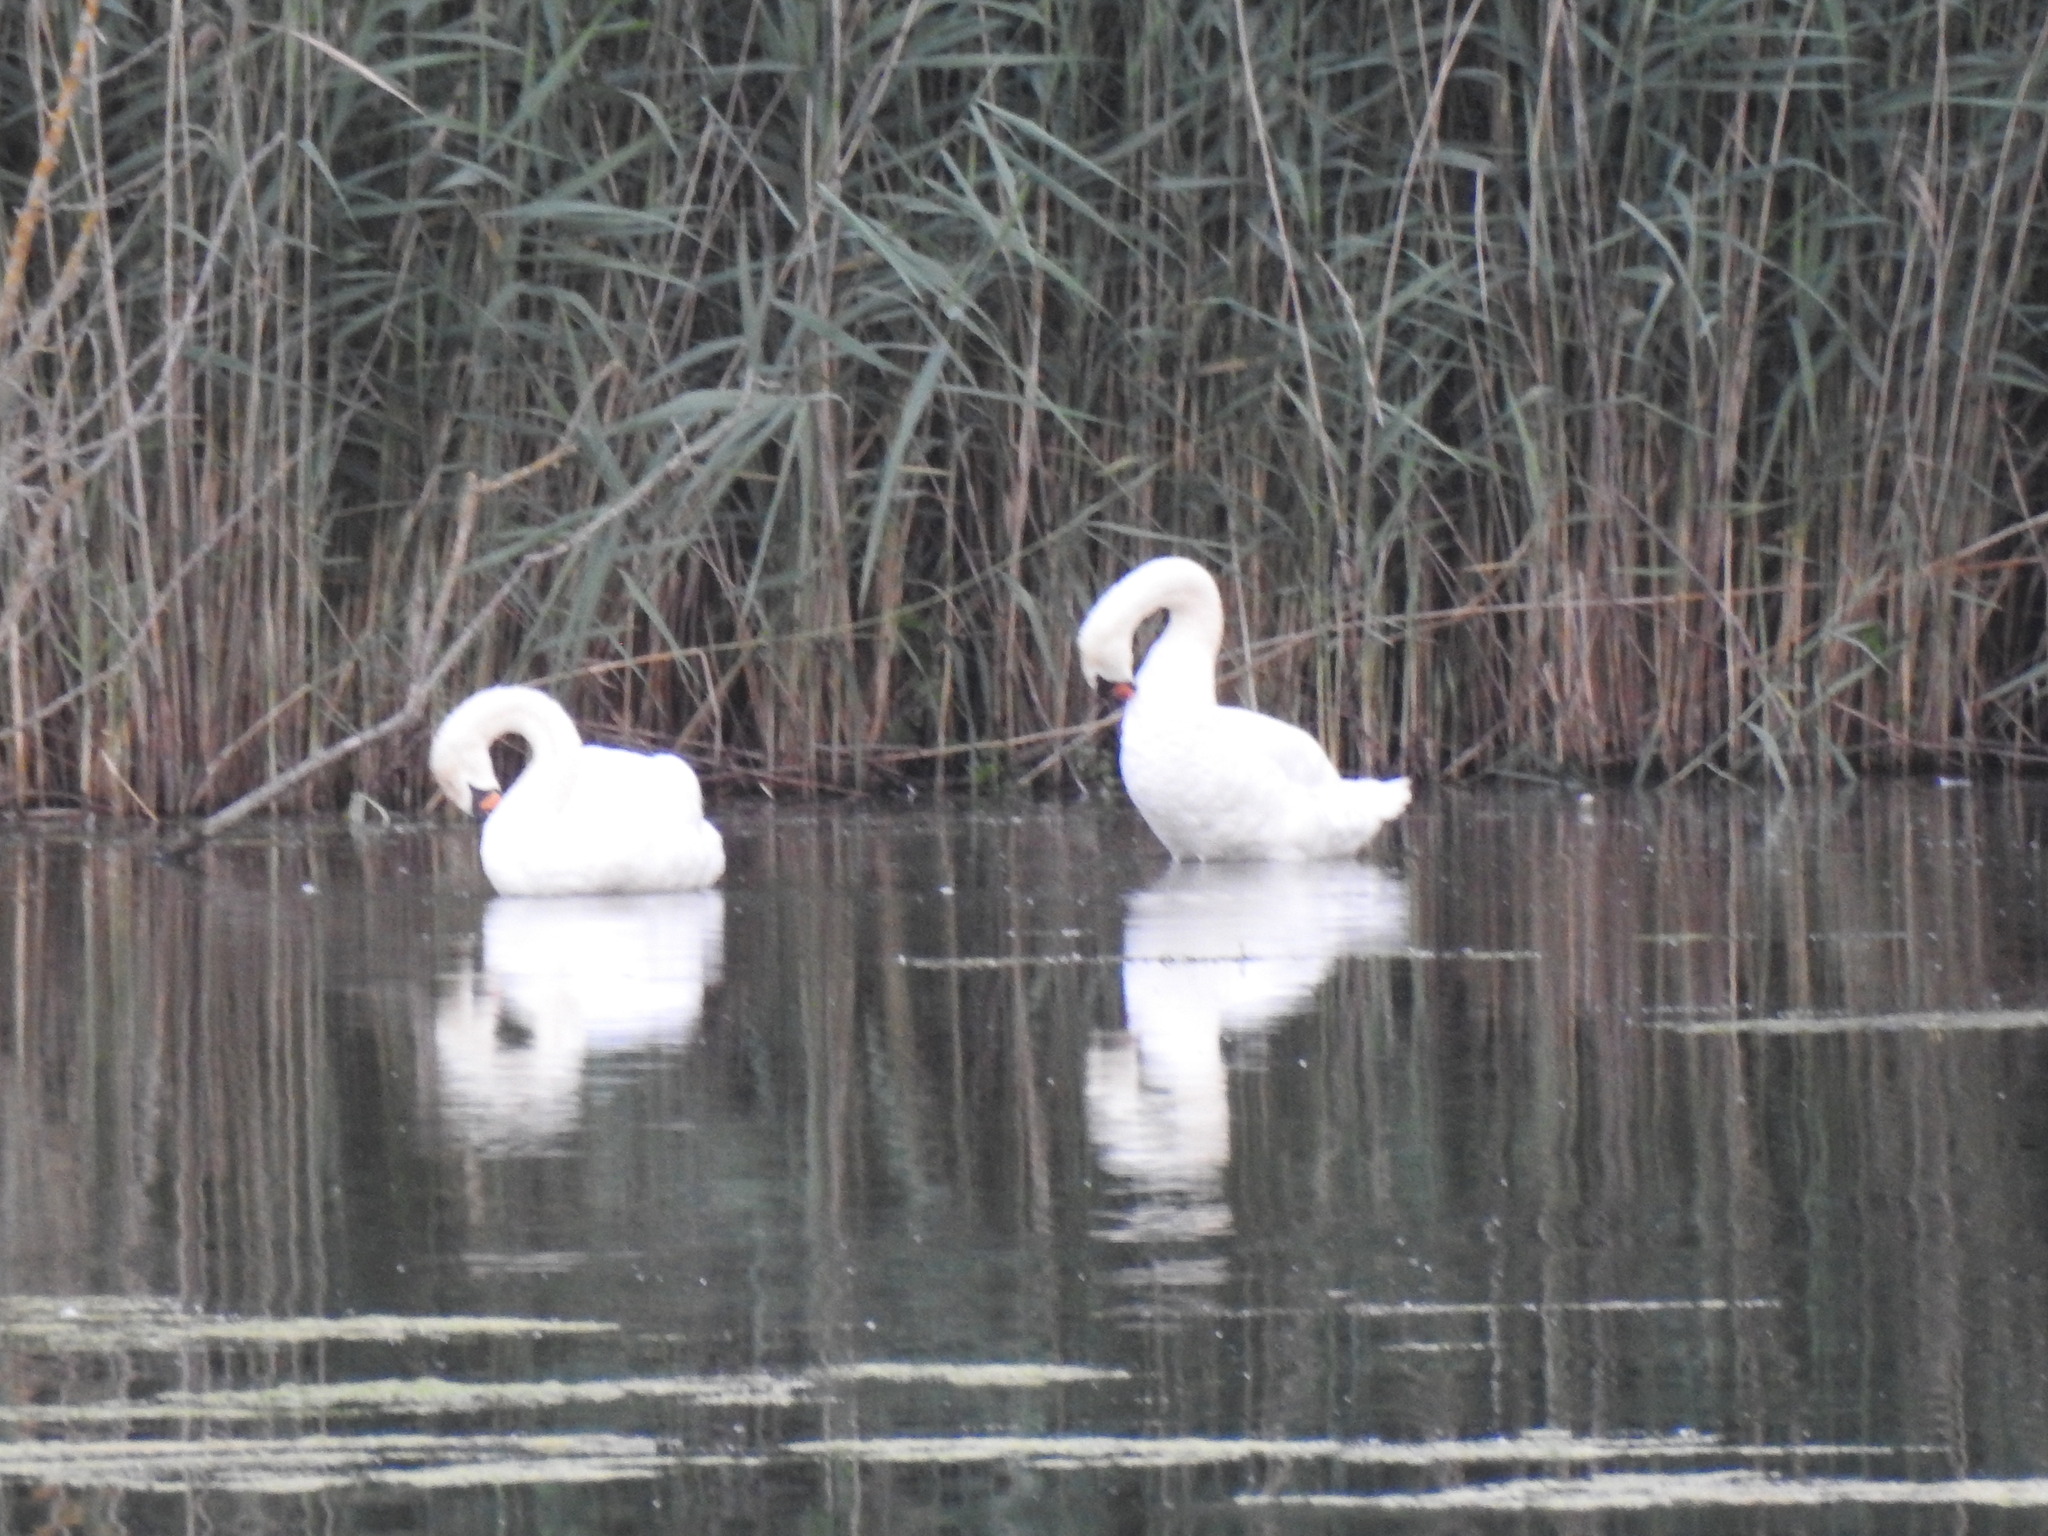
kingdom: Animalia
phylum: Chordata
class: Aves
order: Anseriformes
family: Anatidae
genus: Cygnus
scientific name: Cygnus olor
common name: Mute swan
